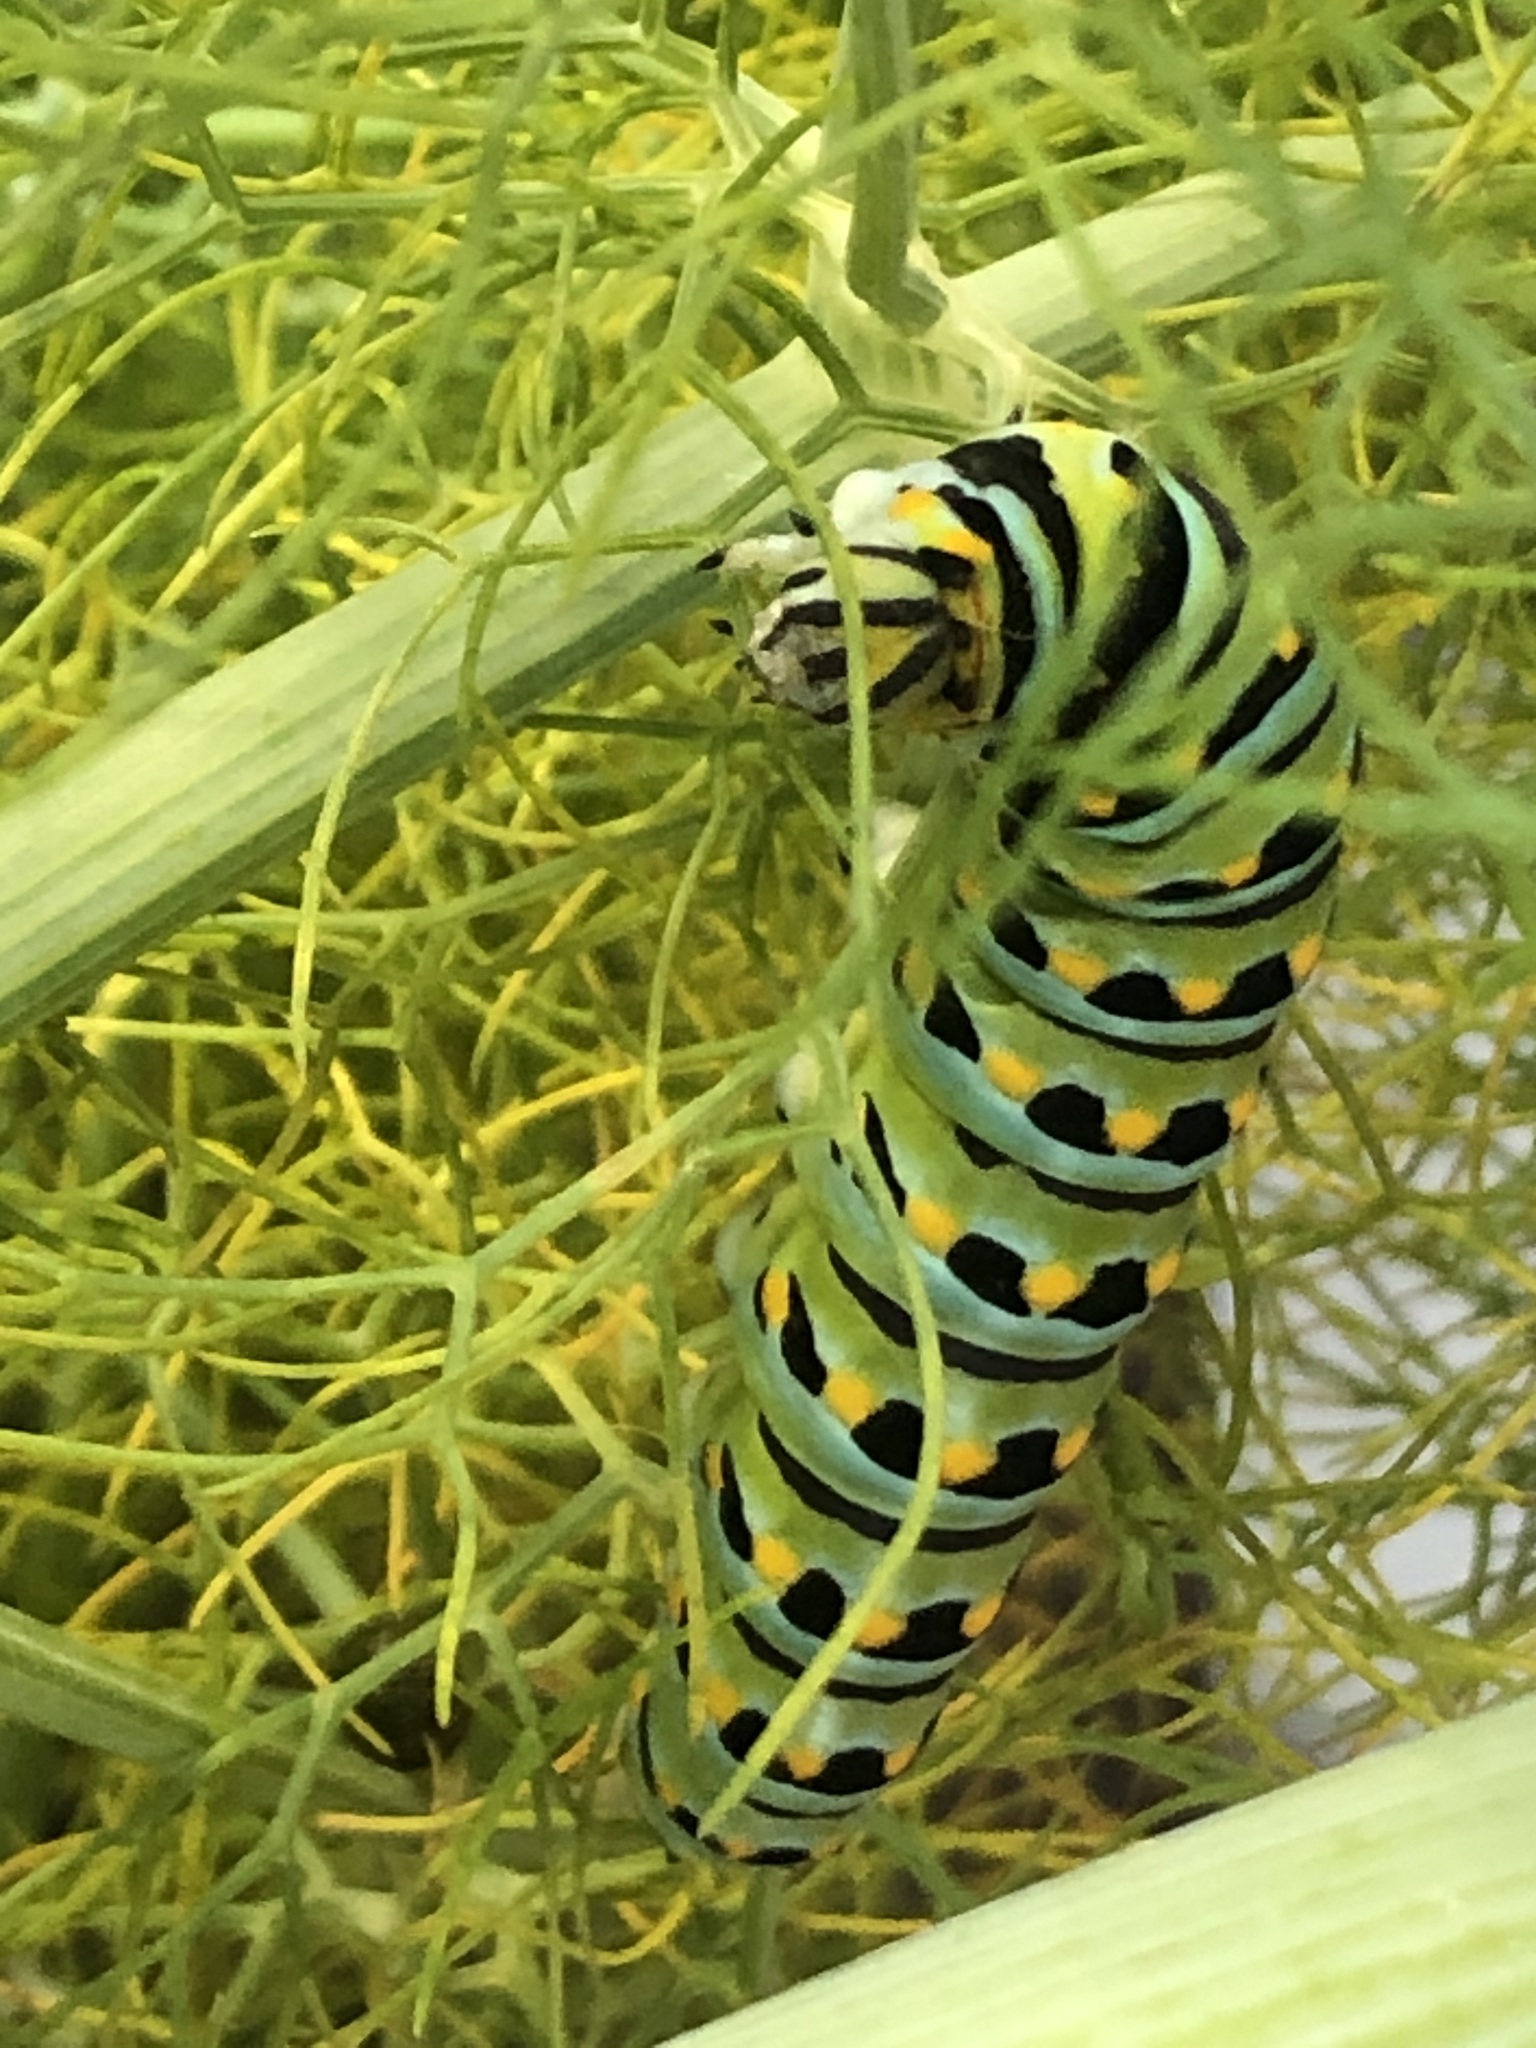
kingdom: Animalia
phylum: Arthropoda
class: Insecta
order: Lepidoptera
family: Papilionidae
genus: Papilio
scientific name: Papilio zelicaon
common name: Anise swallowtail
